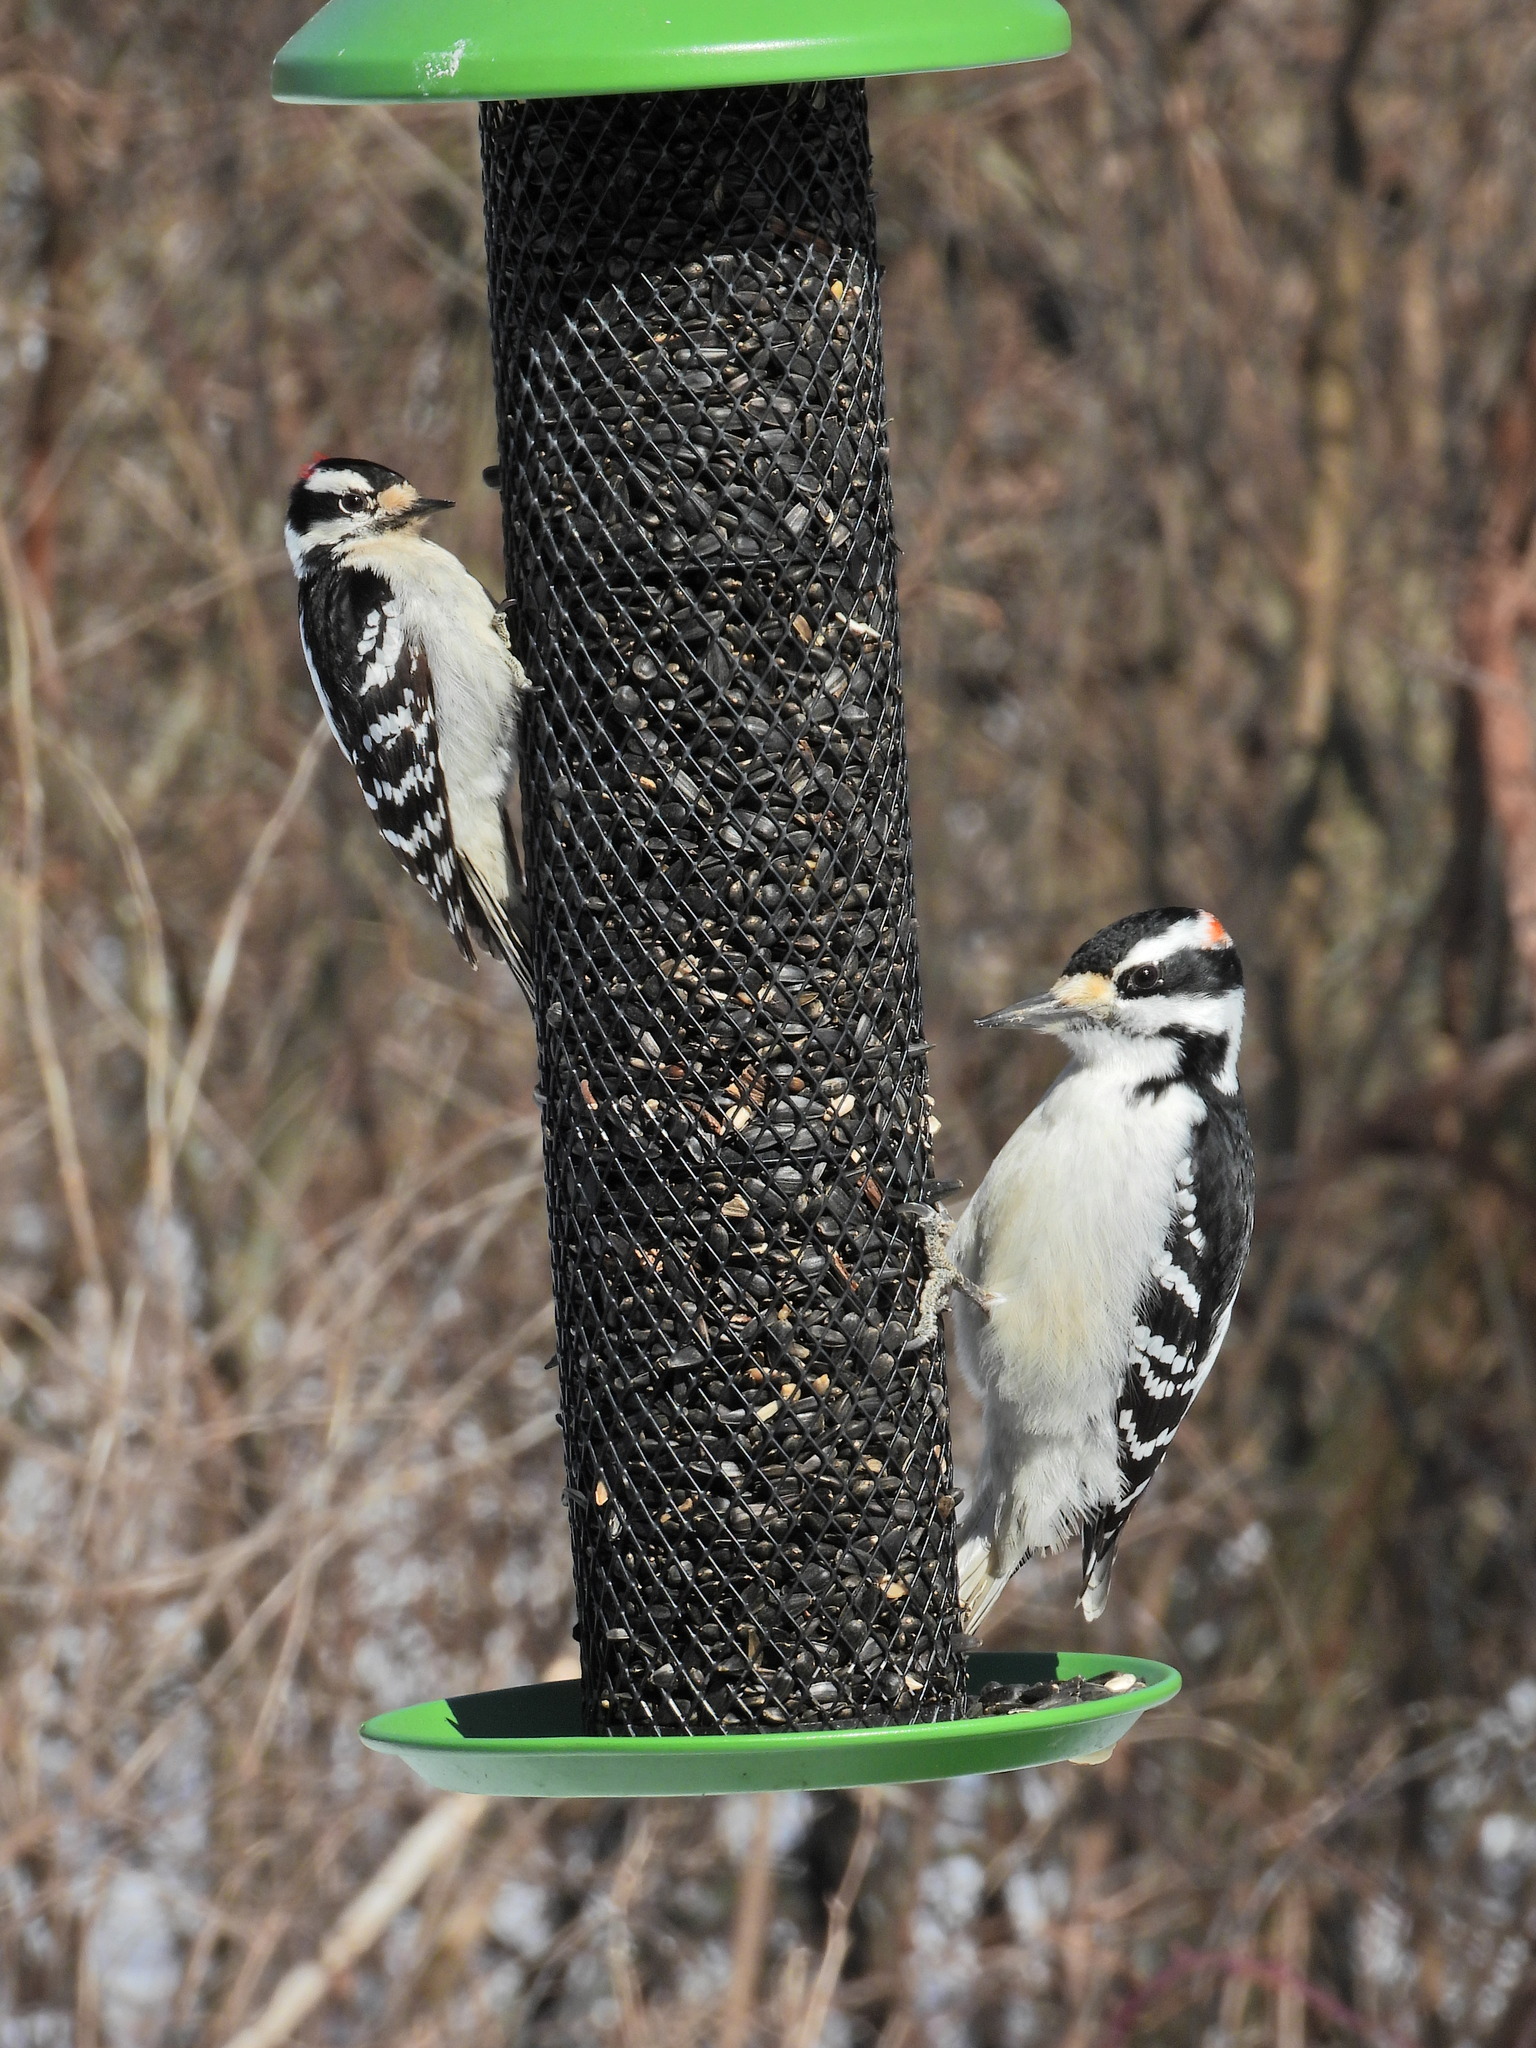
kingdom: Animalia
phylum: Chordata
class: Aves
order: Piciformes
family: Picidae
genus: Leuconotopicus
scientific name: Leuconotopicus villosus
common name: Hairy woodpecker
